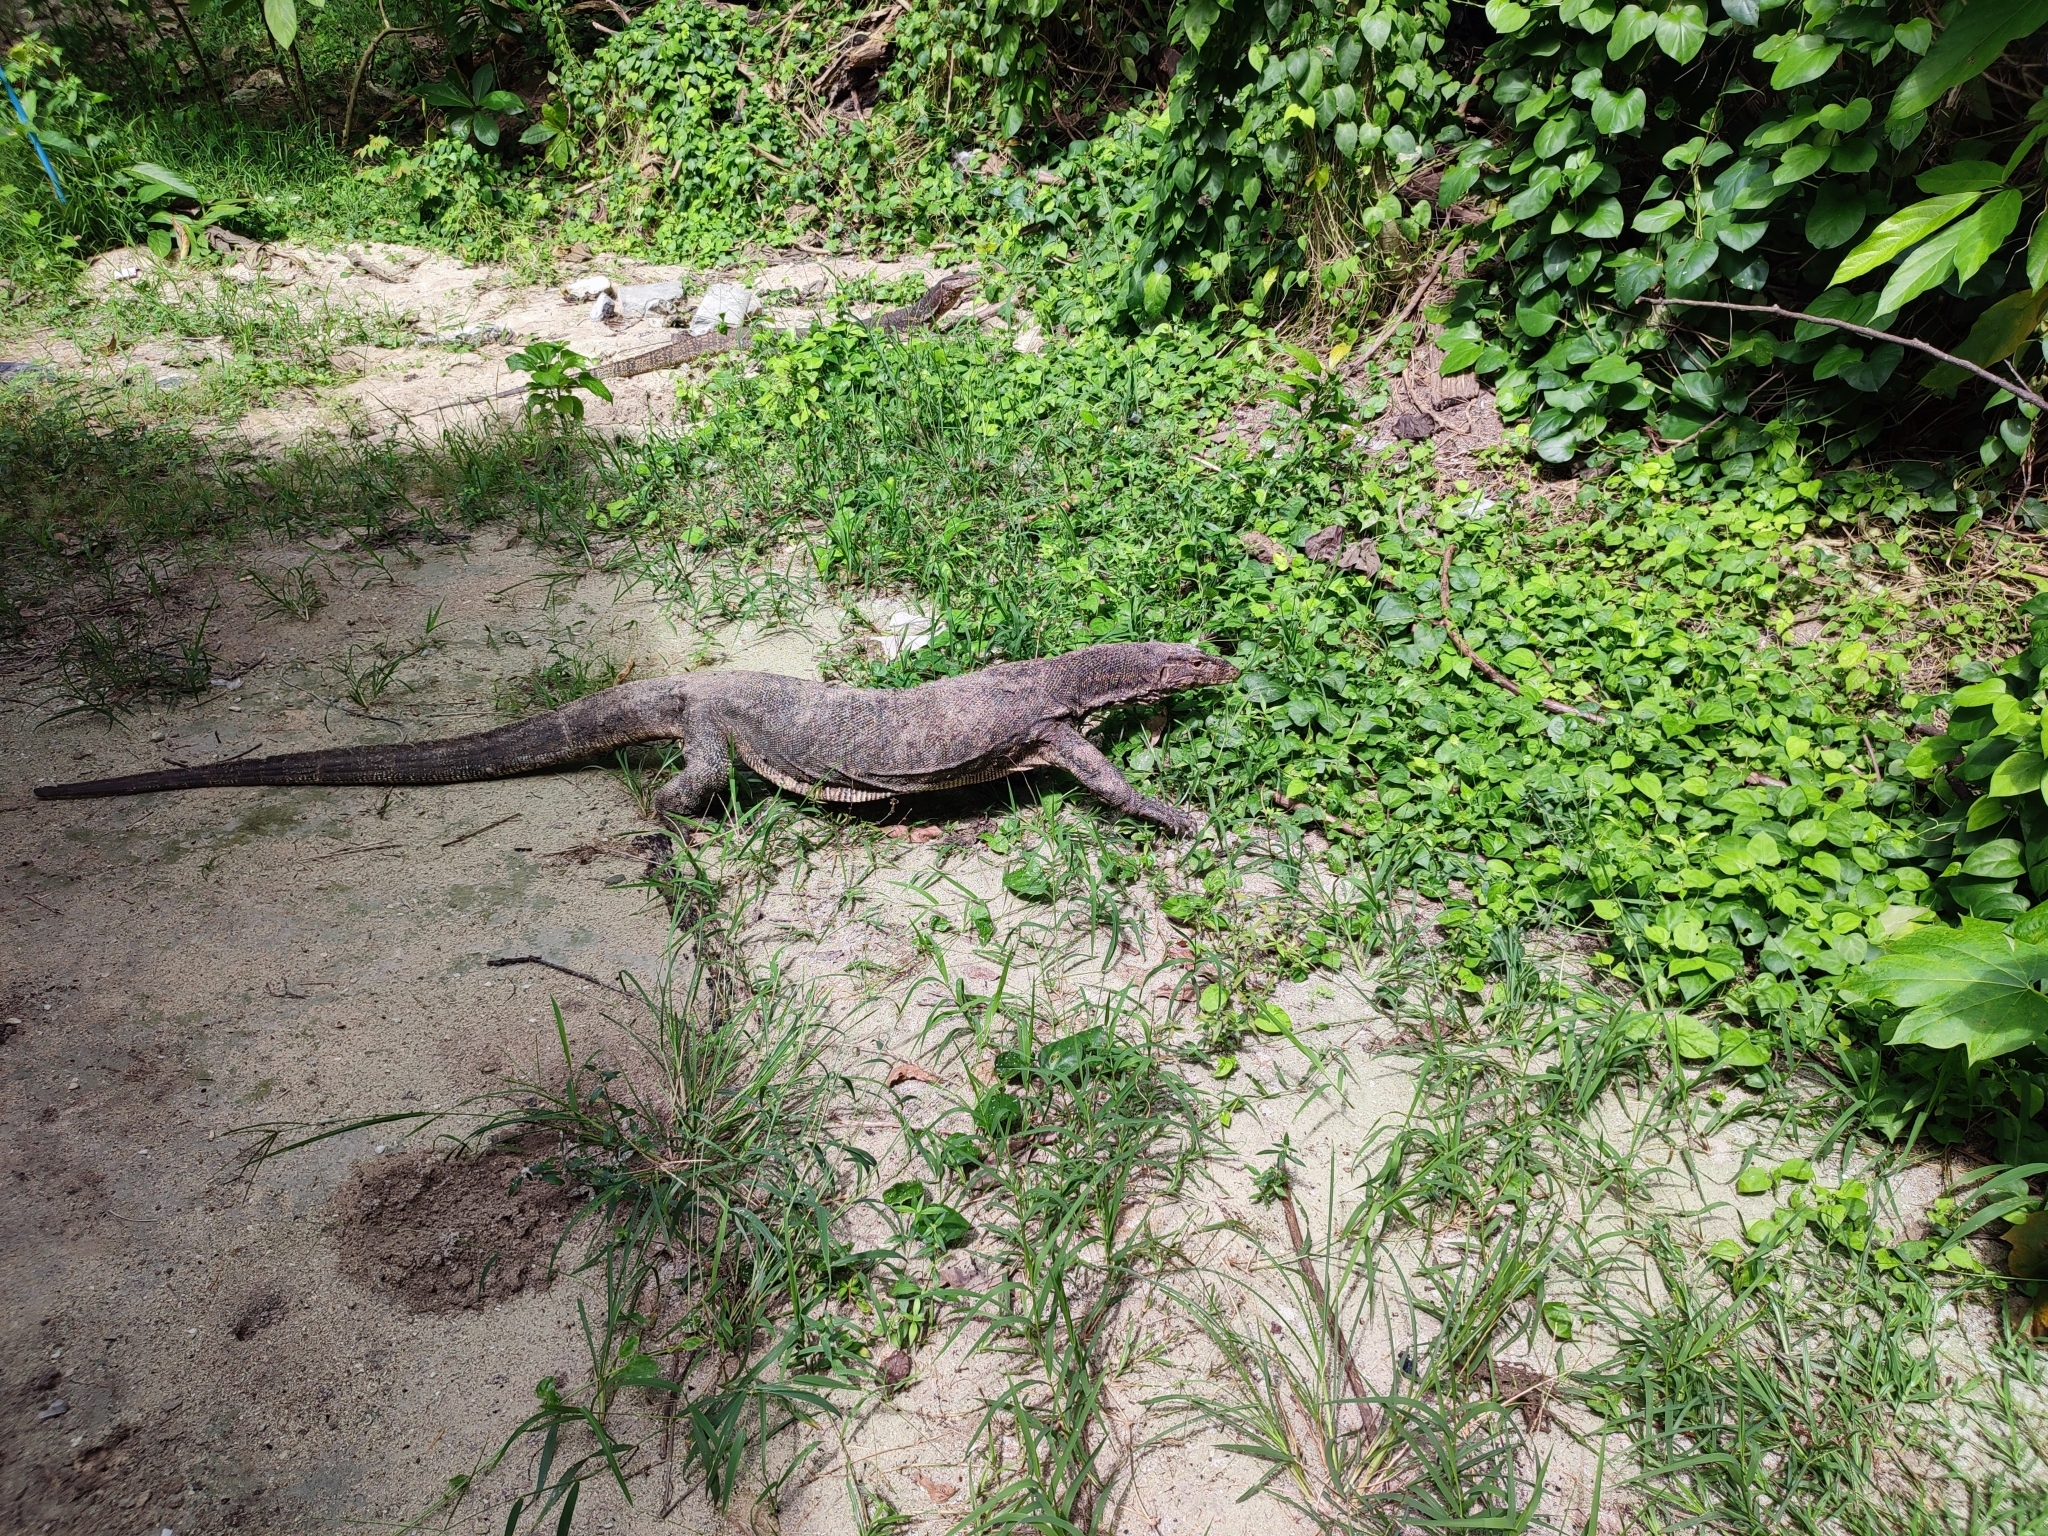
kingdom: Animalia
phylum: Chordata
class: Squamata
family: Varanidae
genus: Varanus
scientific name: Varanus salvator
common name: Common water monitor
